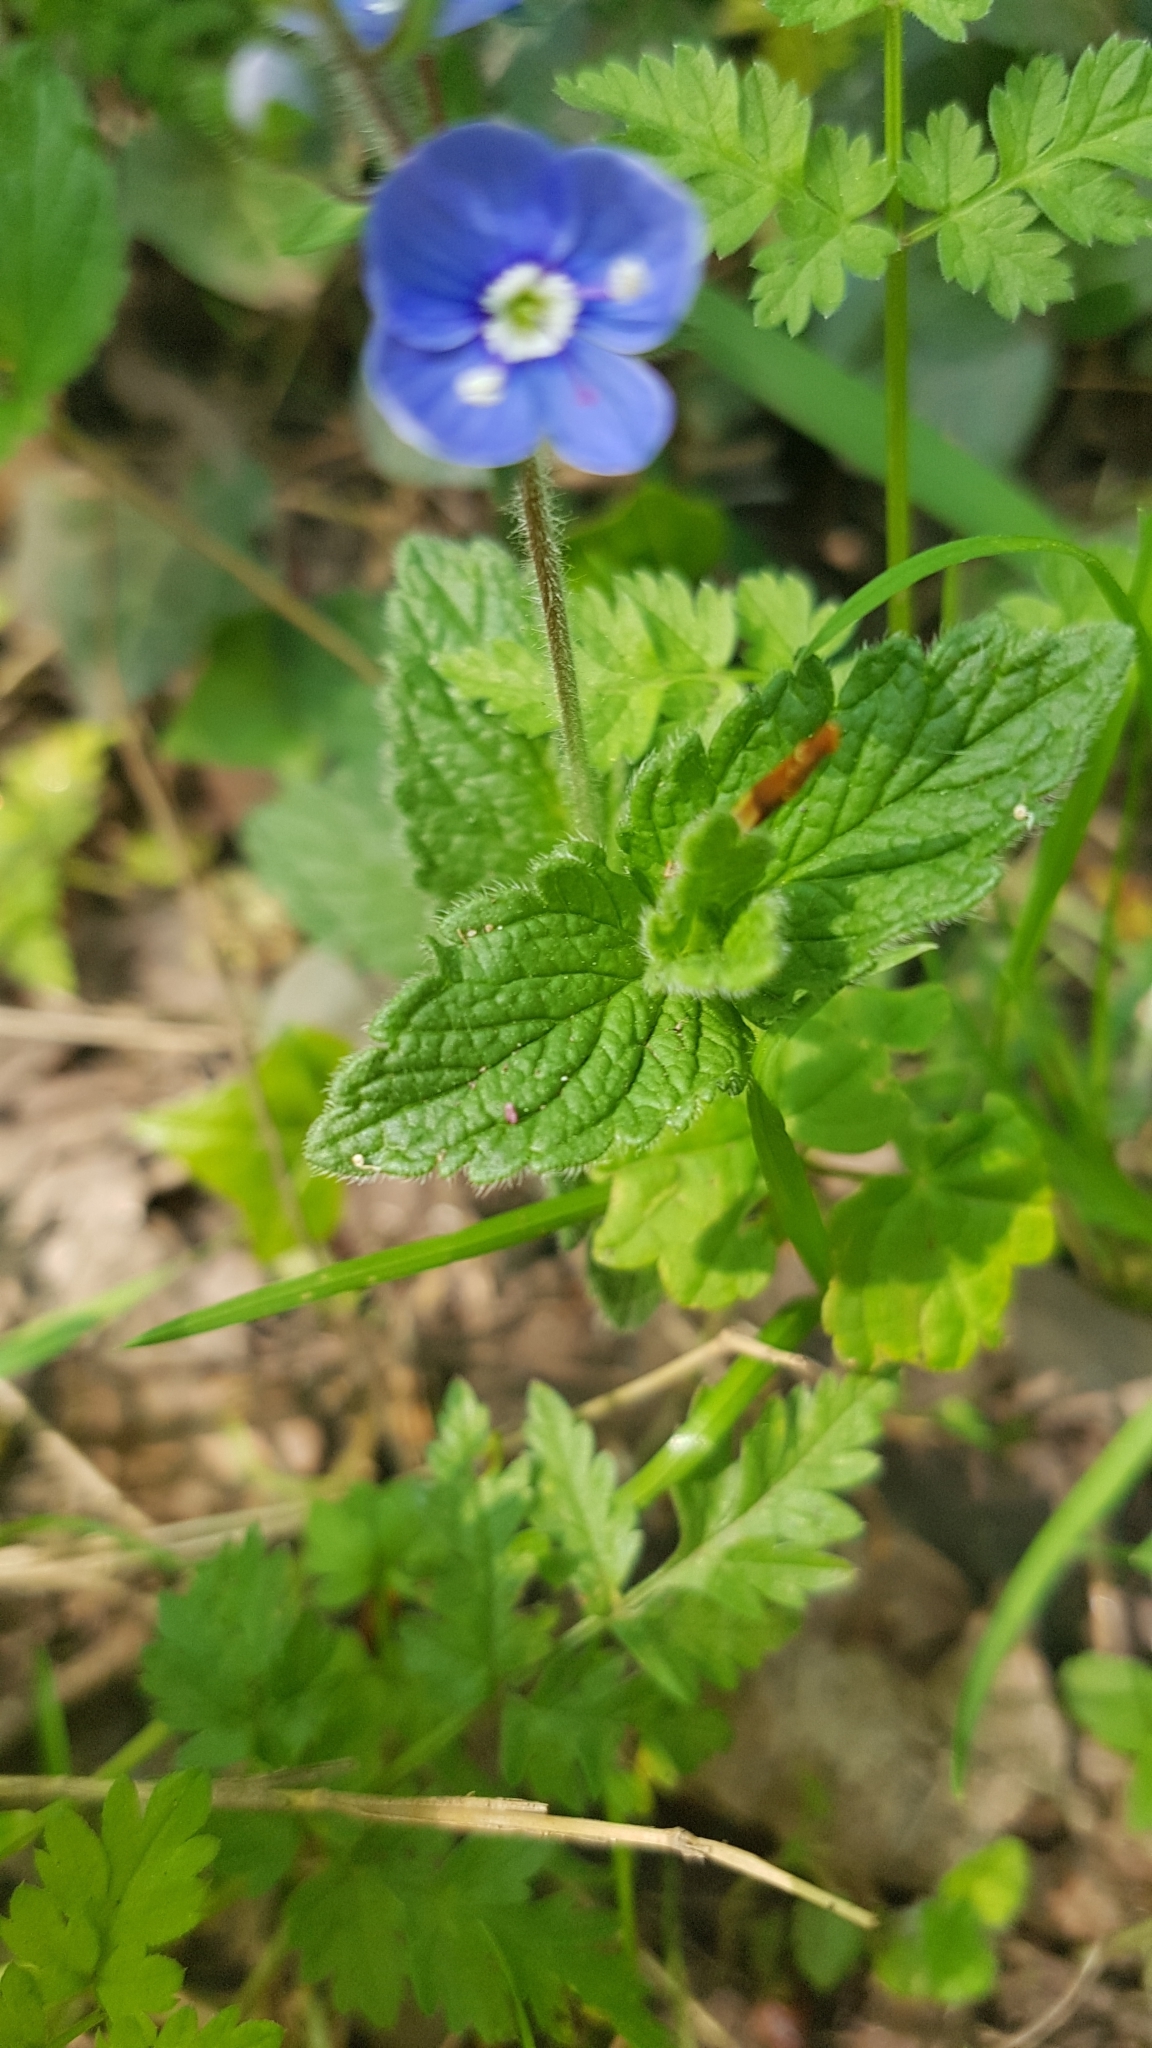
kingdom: Plantae
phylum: Tracheophyta
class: Magnoliopsida
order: Lamiales
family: Plantaginaceae
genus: Veronica
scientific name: Veronica chamaedrys
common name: Germander speedwell
